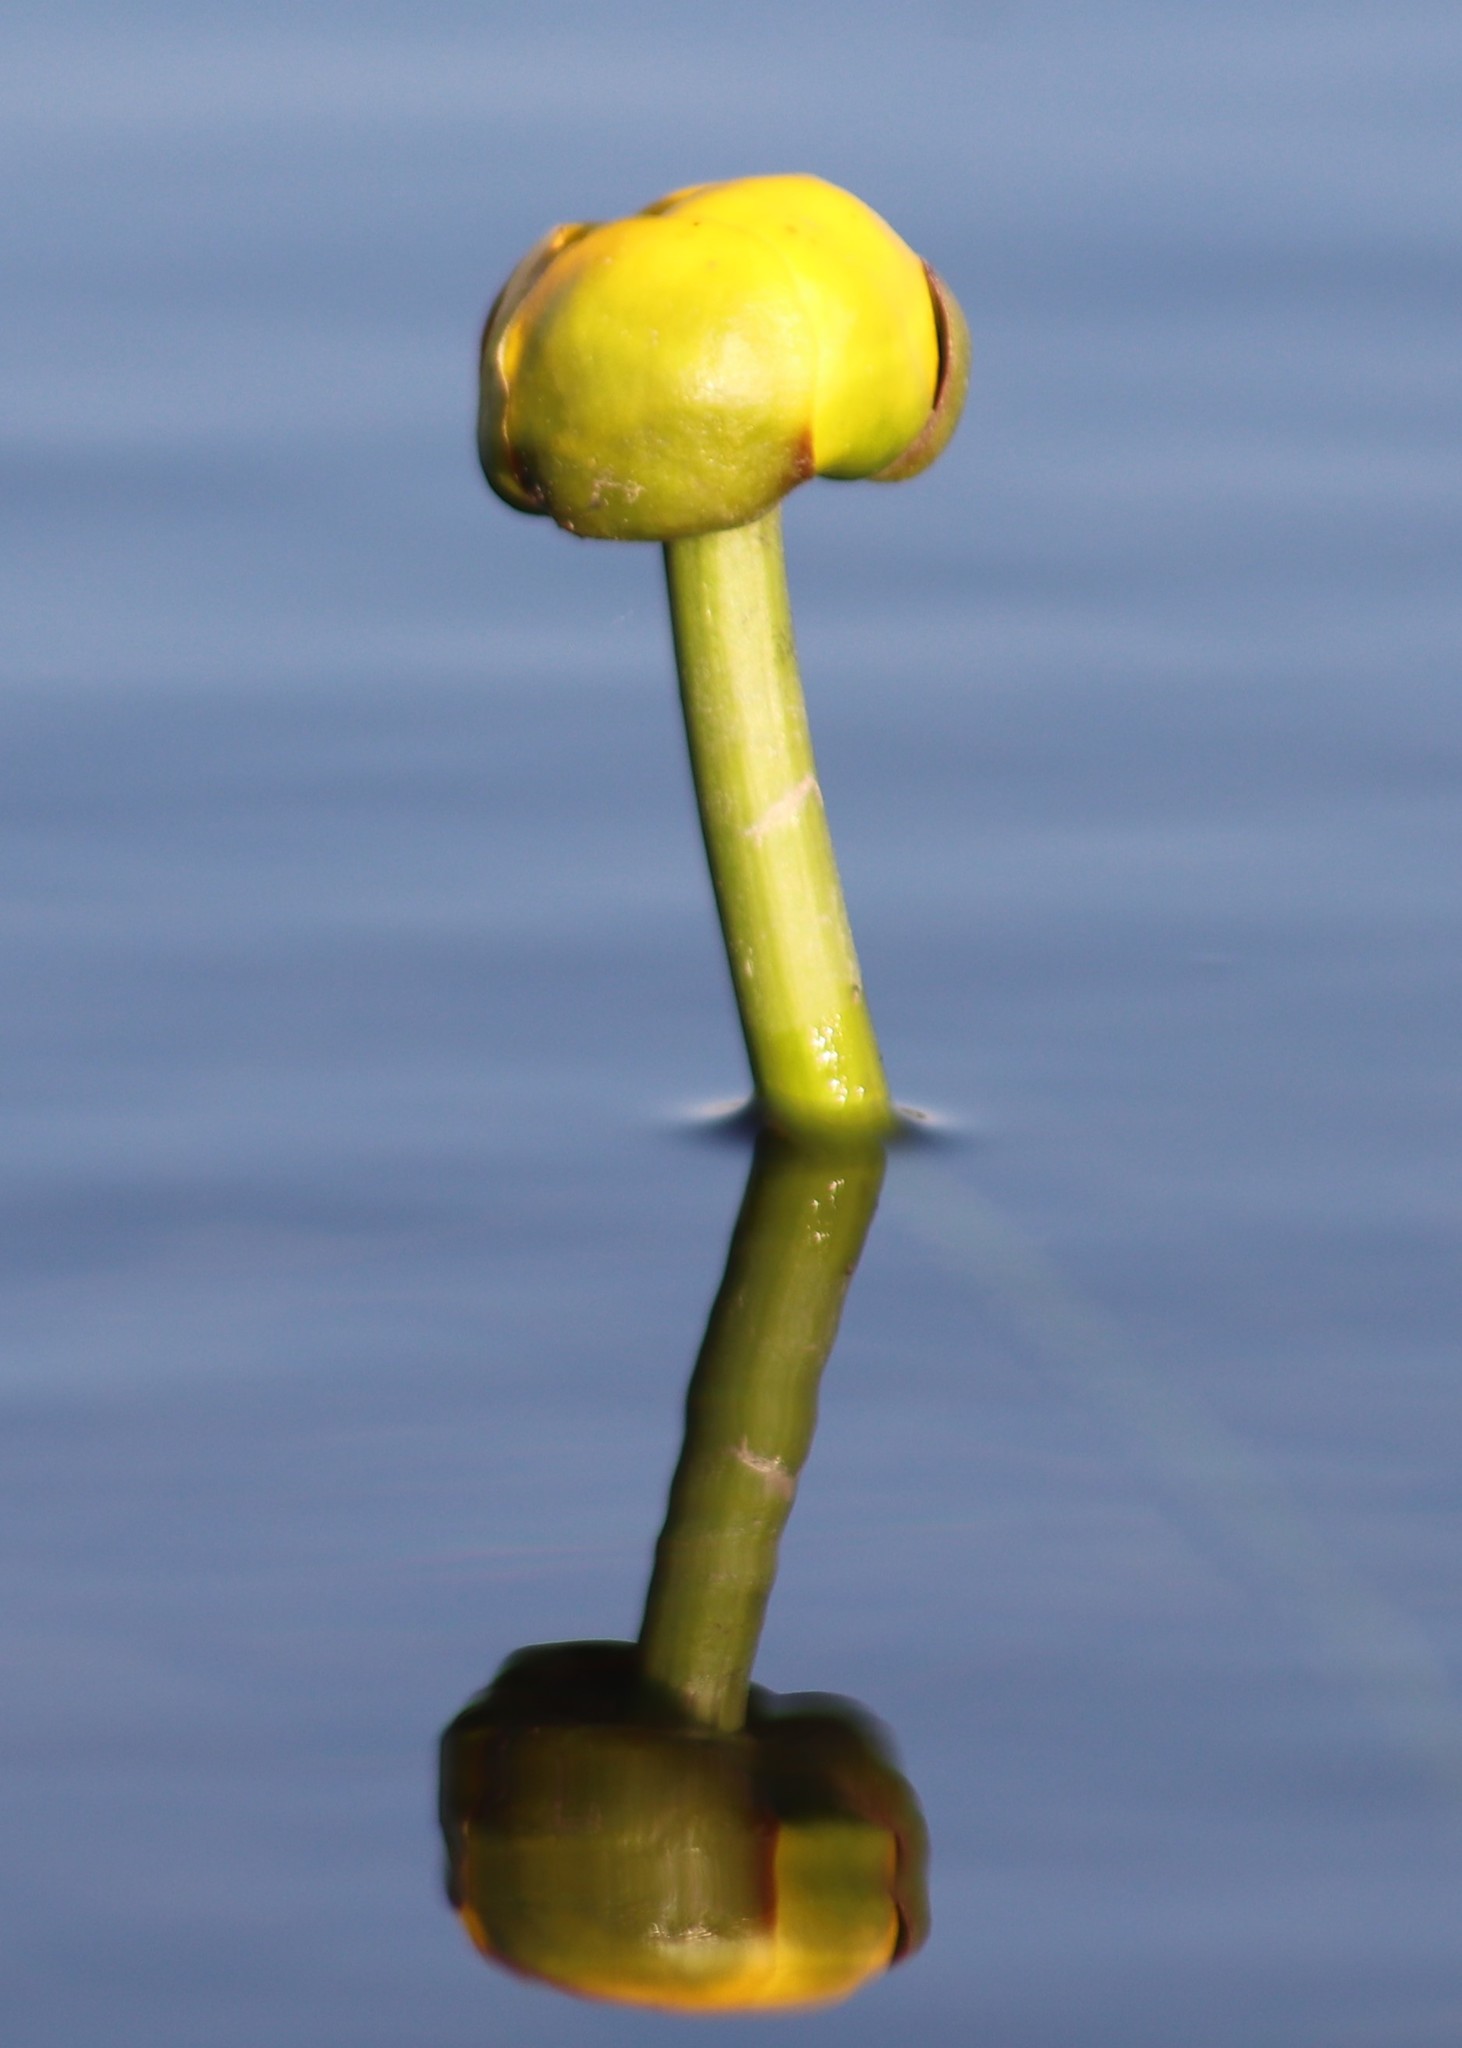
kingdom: Plantae
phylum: Tracheophyta
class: Magnoliopsida
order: Nymphaeales
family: Nymphaeaceae
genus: Nuphar
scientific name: Nuphar variegata
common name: Beaver-root
